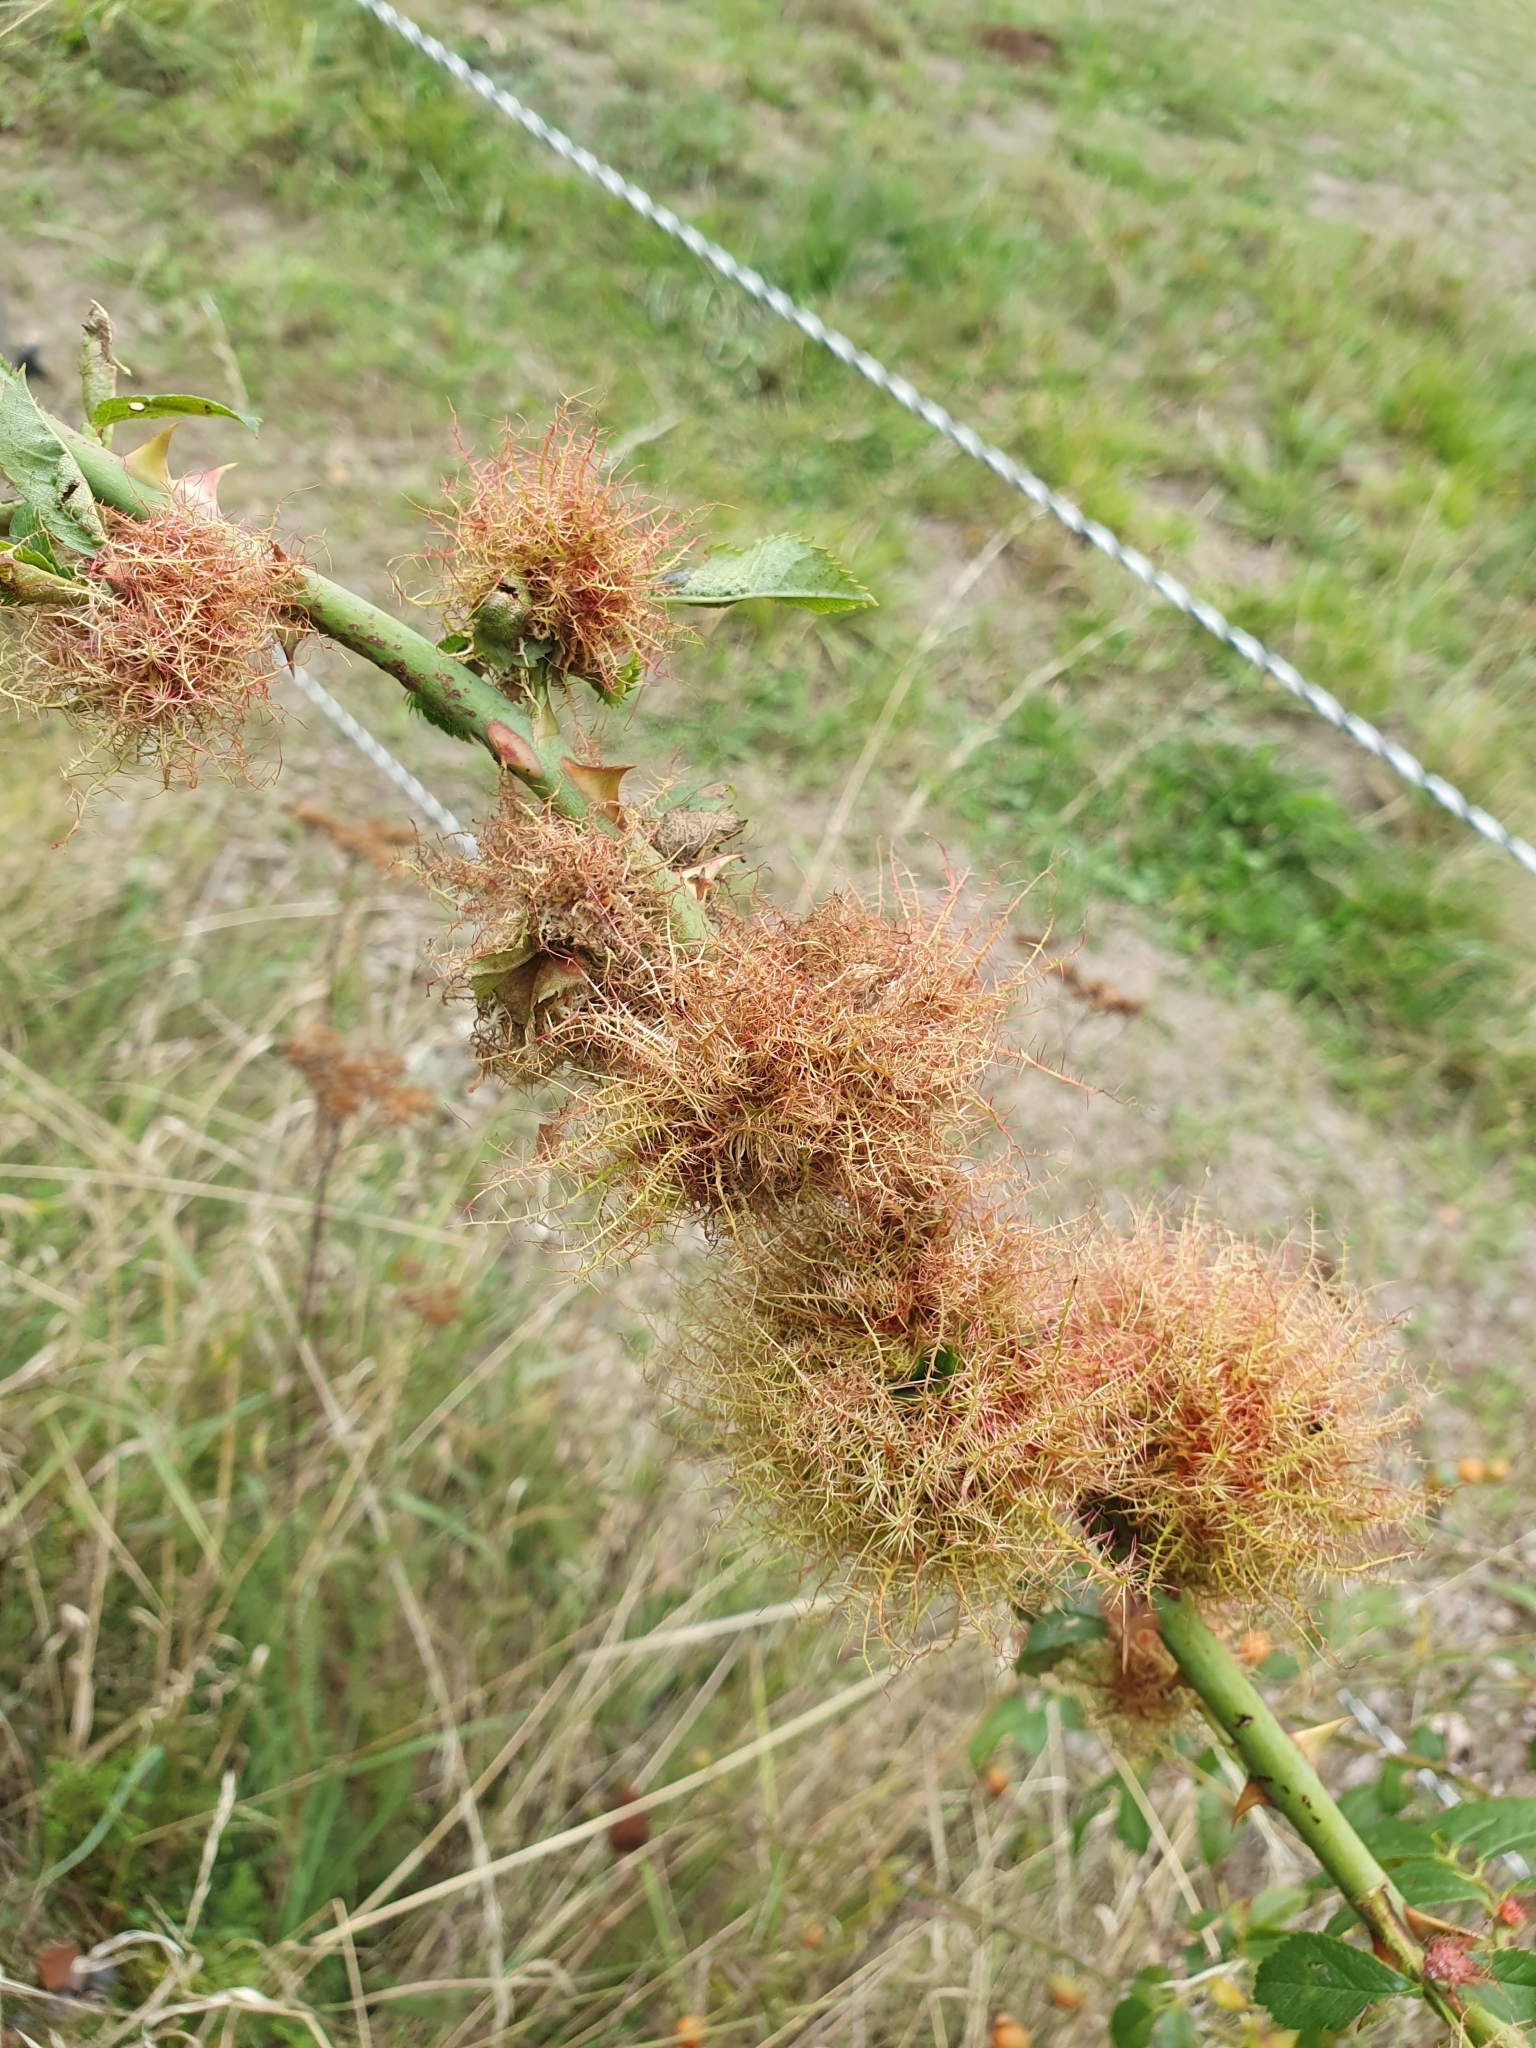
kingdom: Animalia
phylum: Arthropoda
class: Insecta
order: Hymenoptera
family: Cynipidae
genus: Diplolepis
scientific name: Diplolepis rosae
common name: Bedeguar gall
